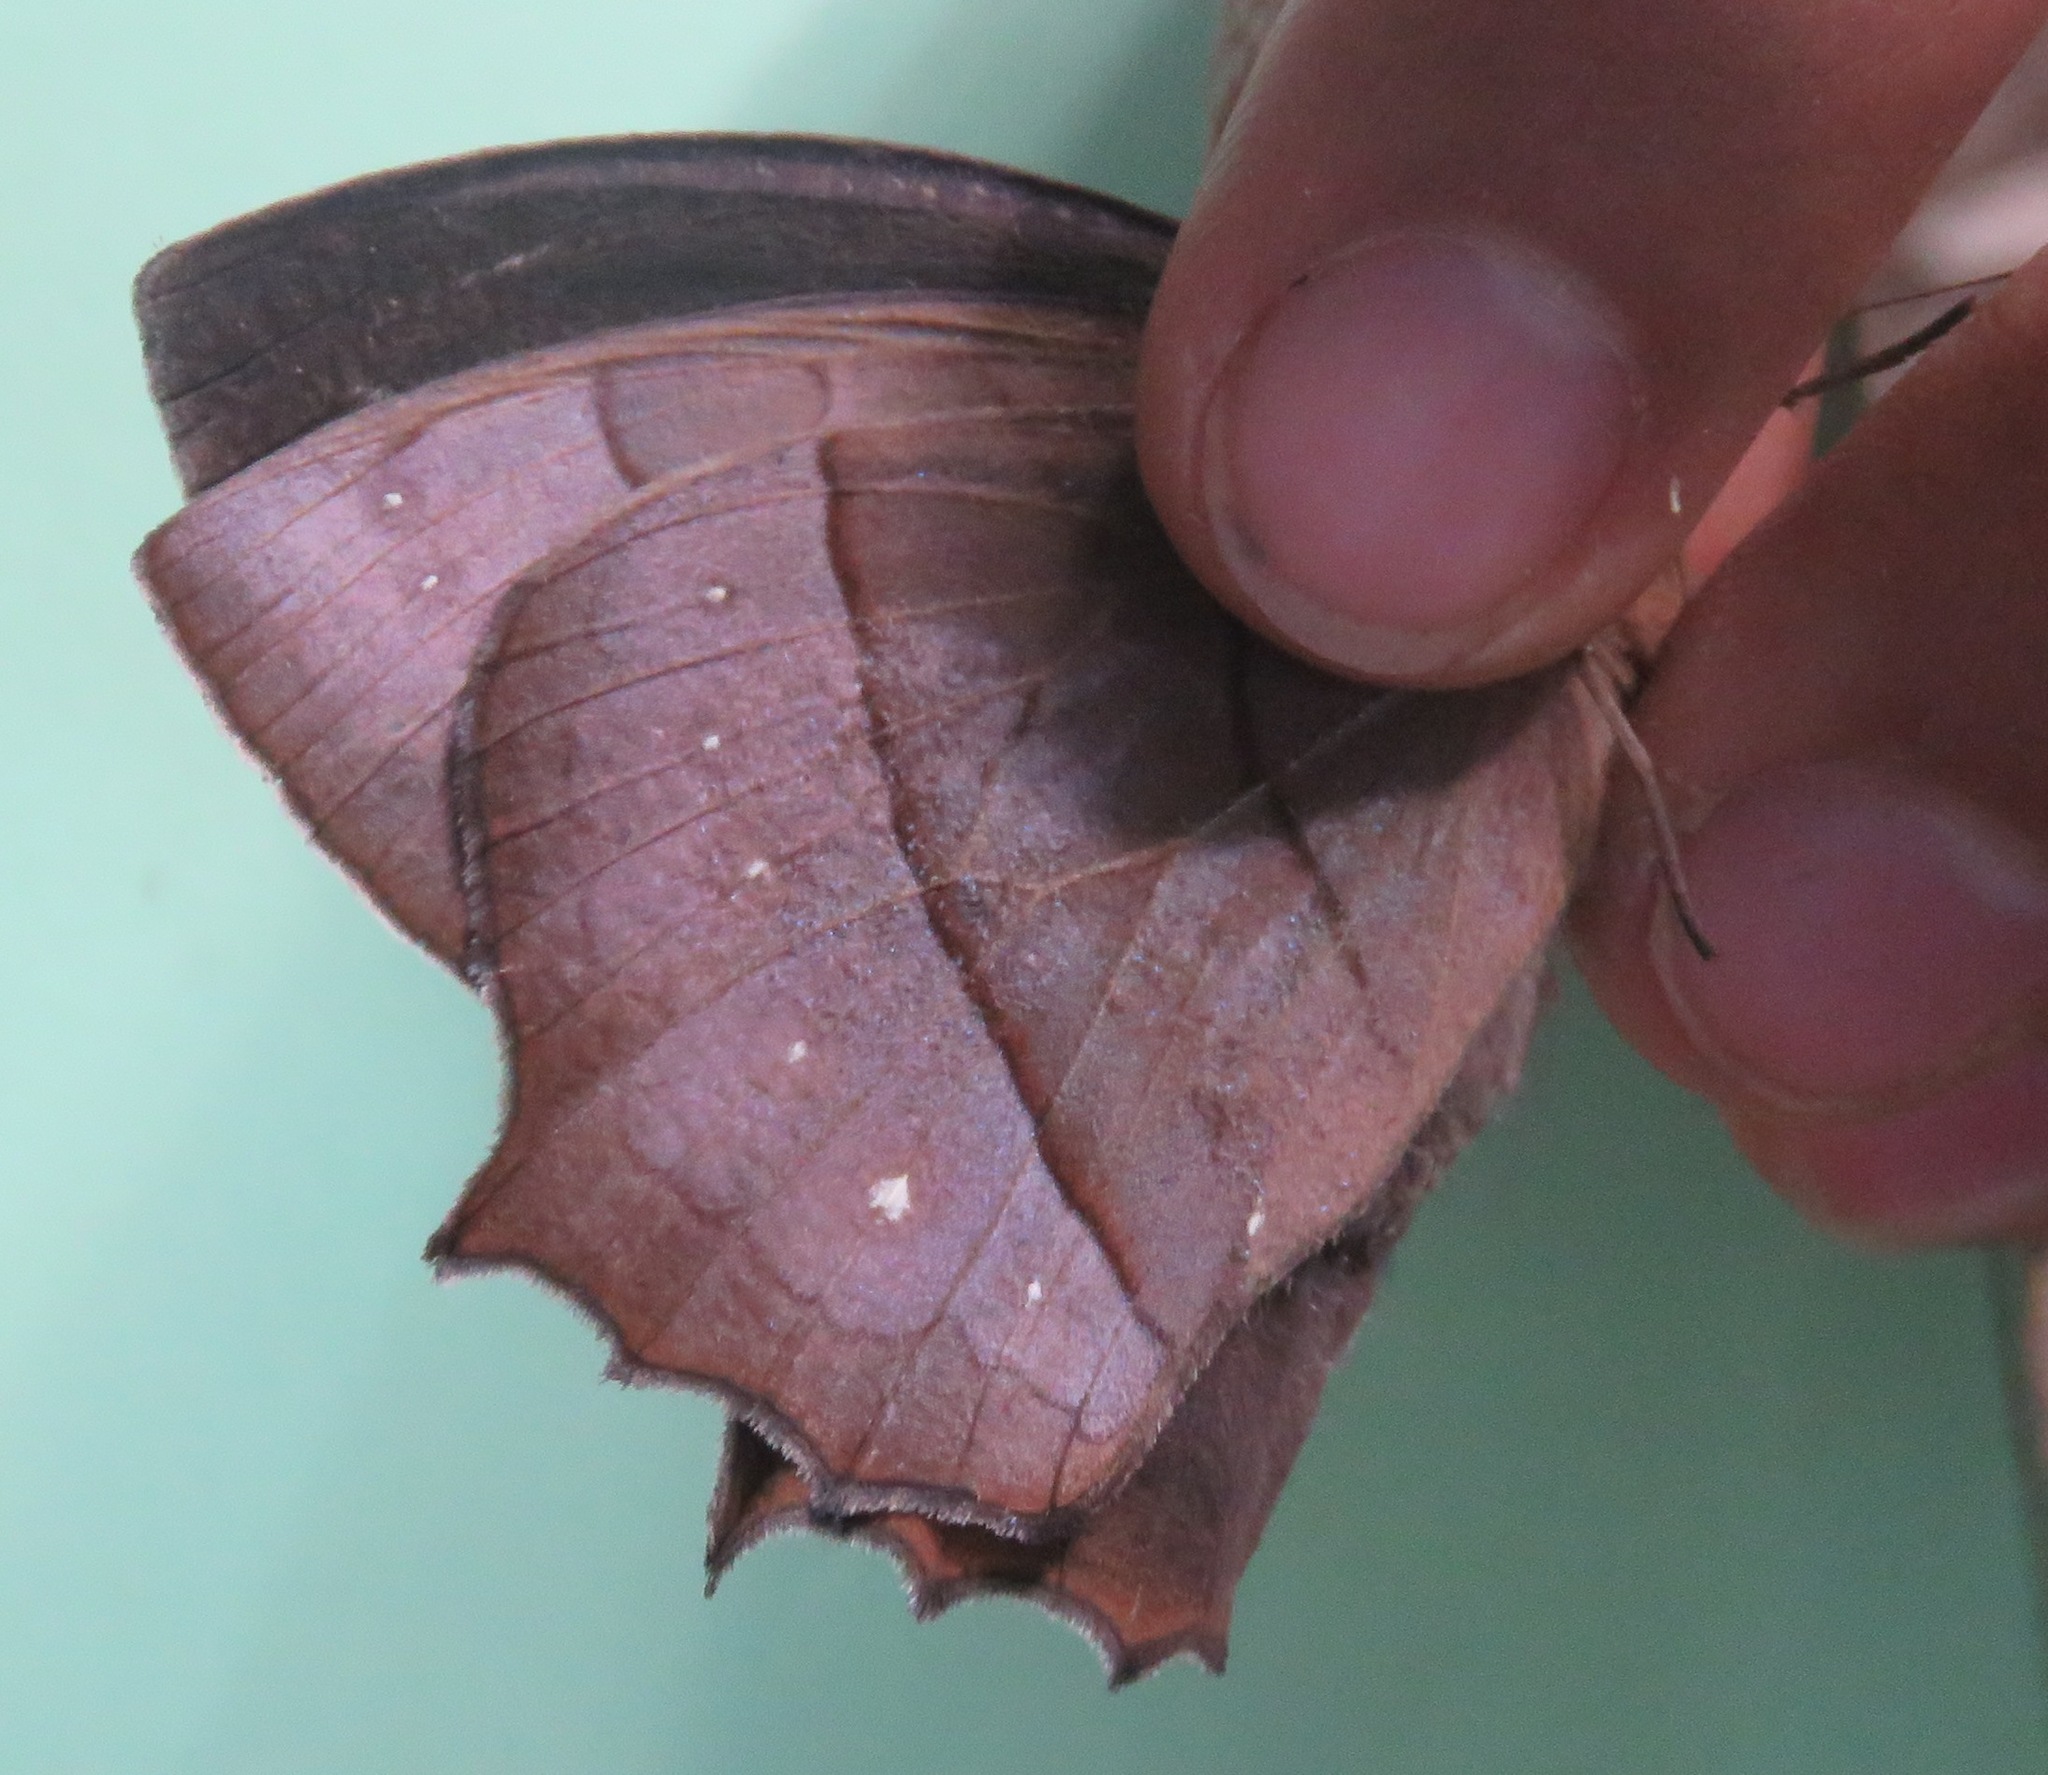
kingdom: Animalia
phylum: Arthropoda
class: Insecta
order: Lepidoptera
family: Nymphalidae
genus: Taygetis
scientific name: Taygetis virgilia
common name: Stub-tailed satyr
